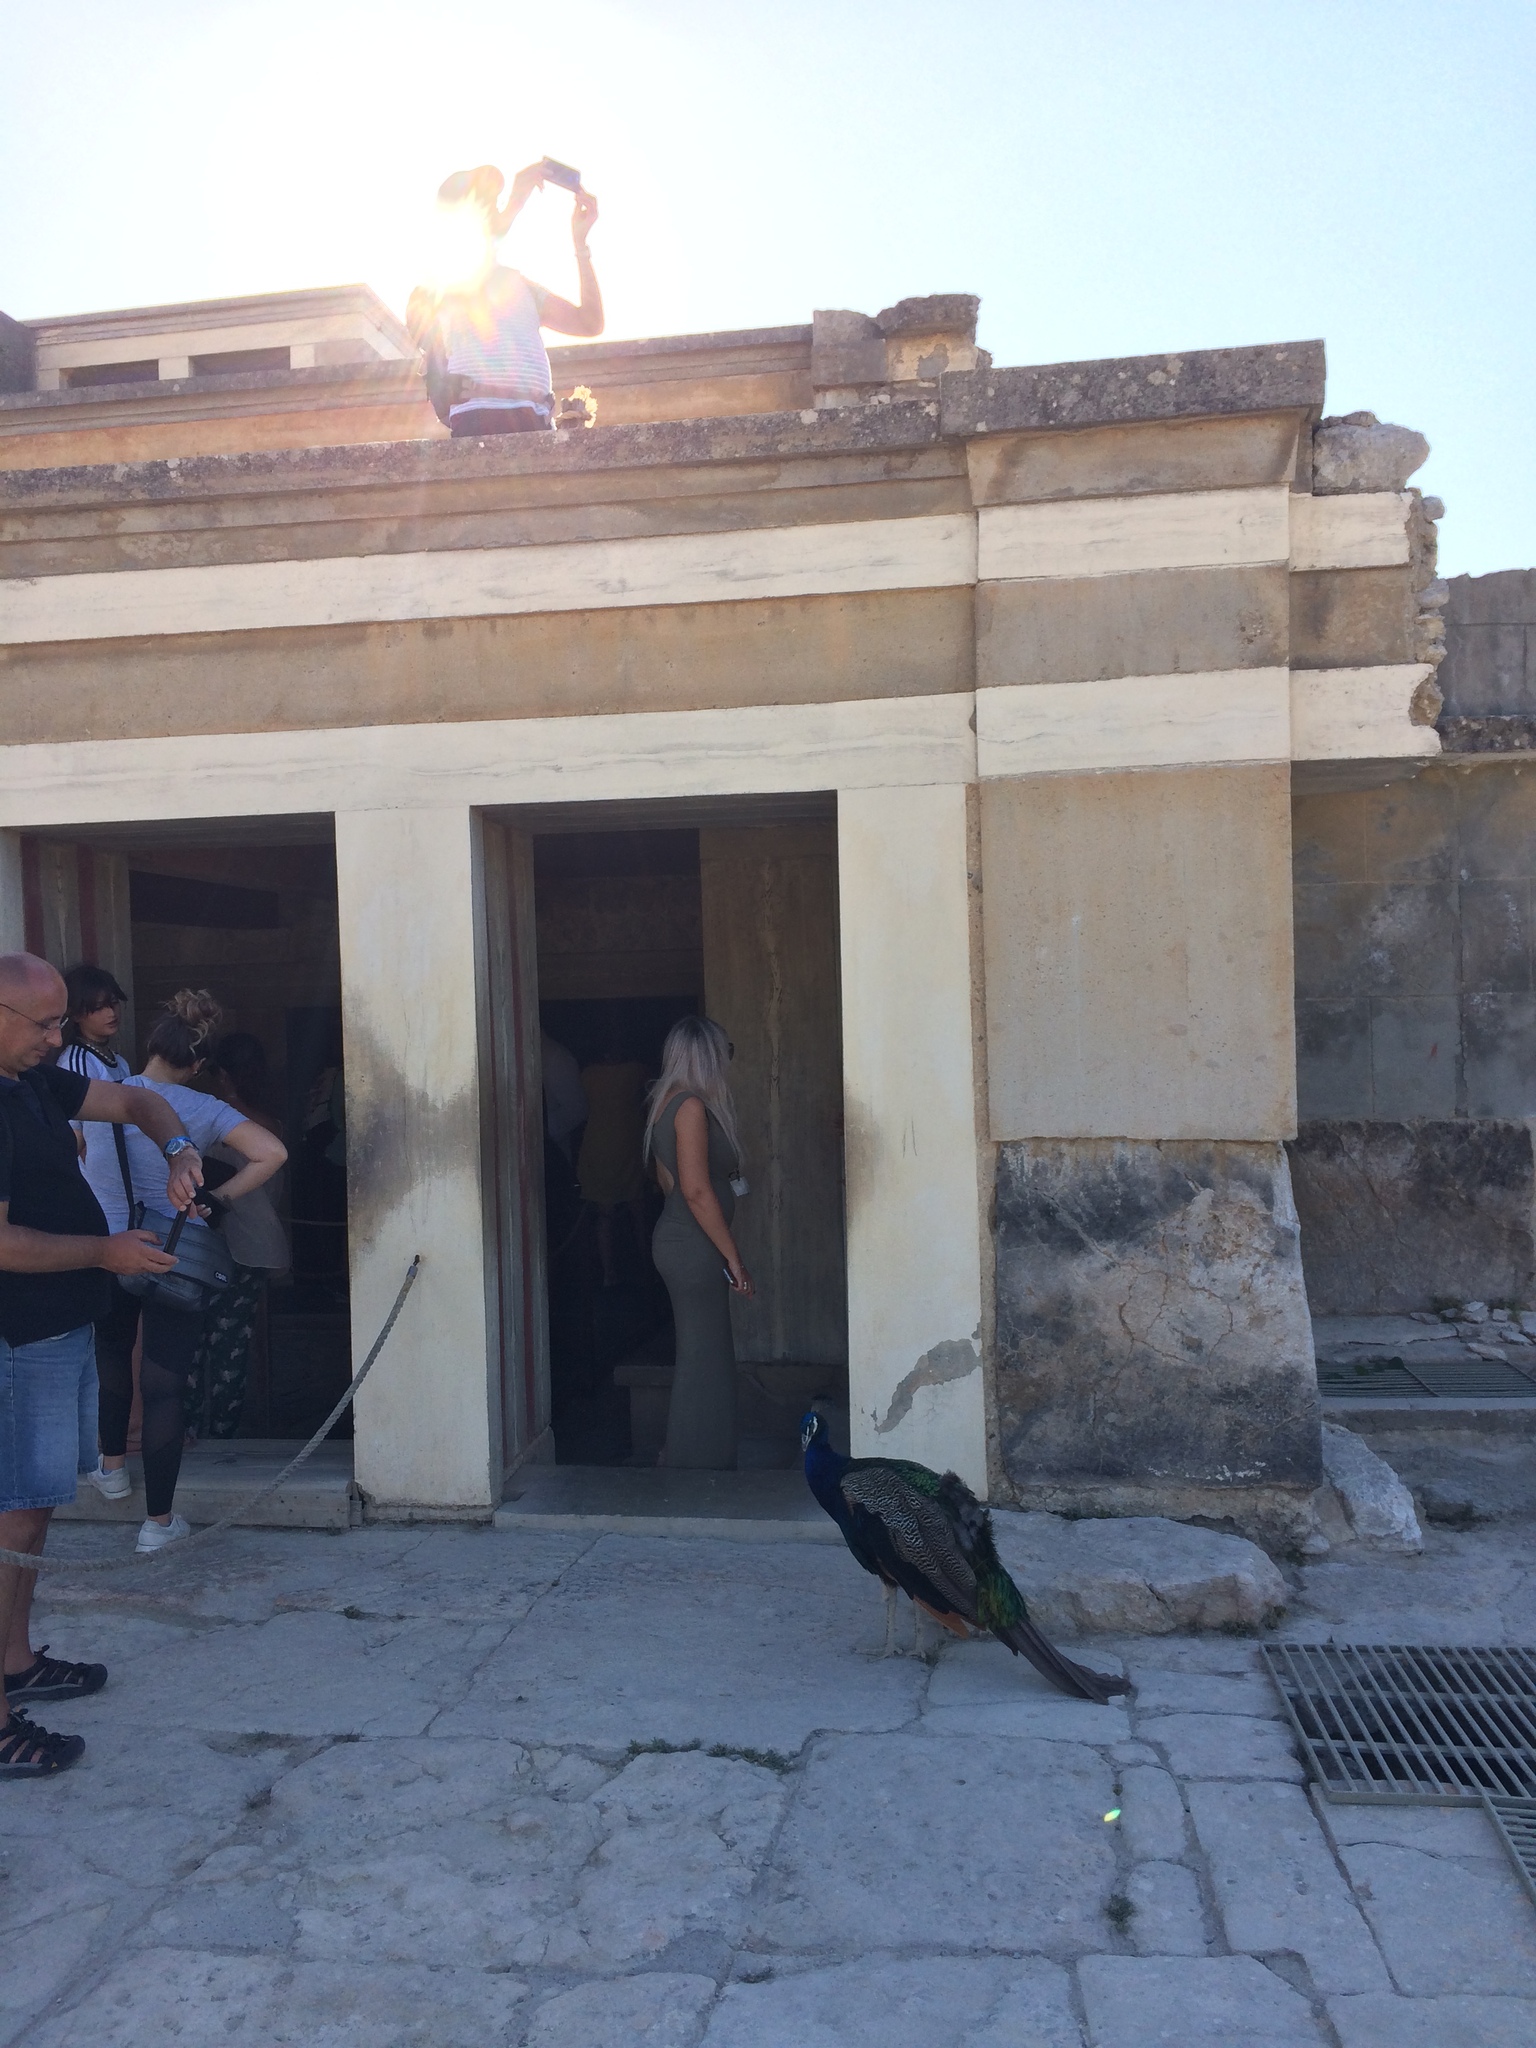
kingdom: Animalia
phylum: Chordata
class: Aves
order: Galliformes
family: Phasianidae
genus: Pavo
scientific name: Pavo cristatus
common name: Indian peafowl
